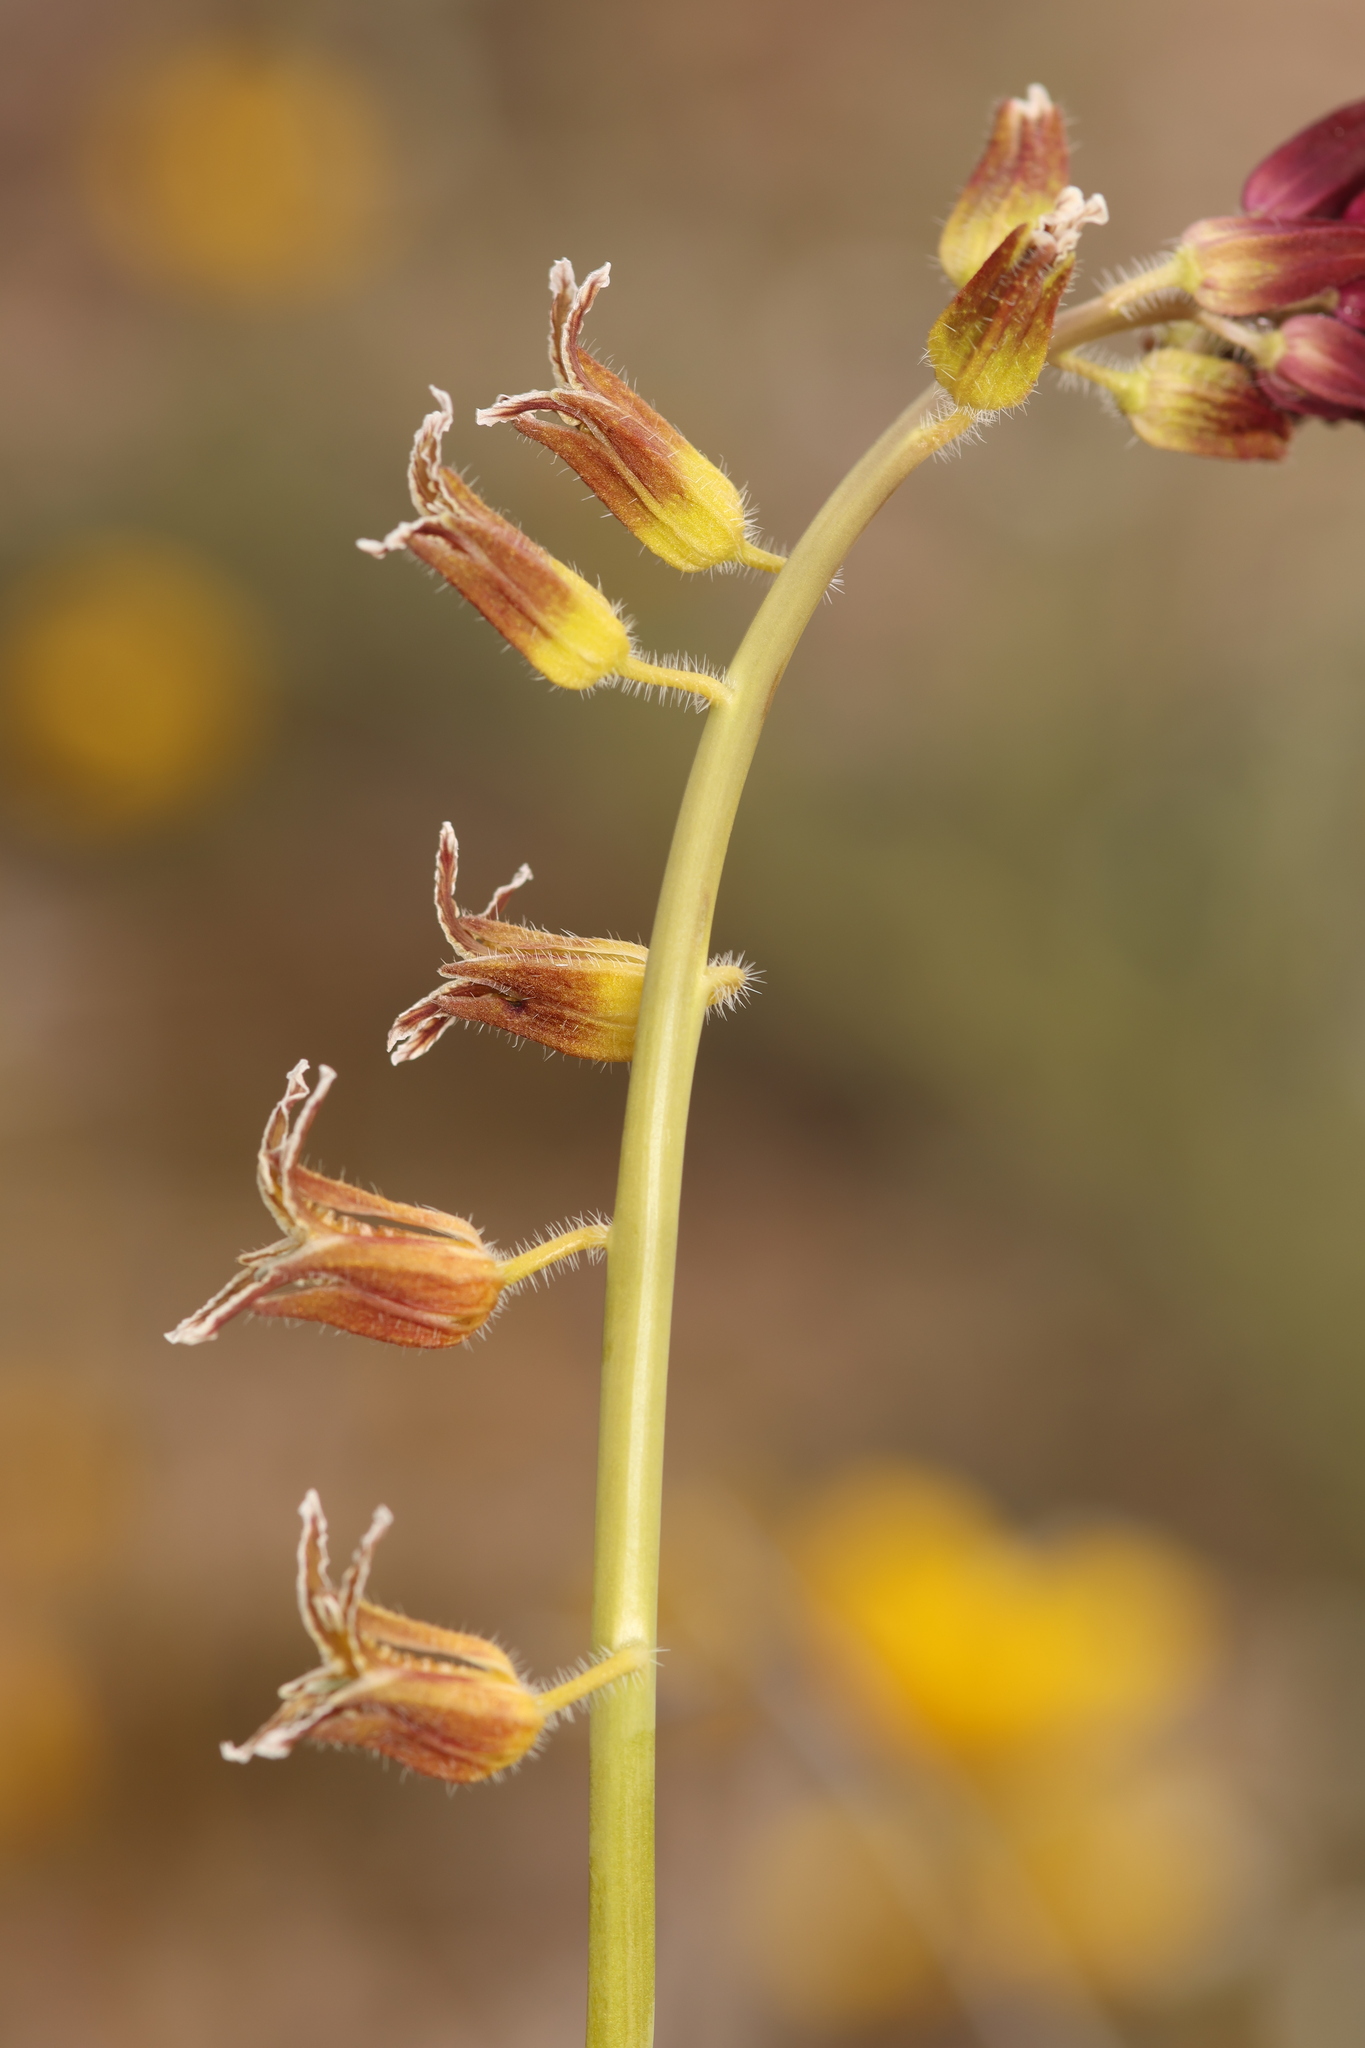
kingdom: Plantae
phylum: Tracheophyta
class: Magnoliopsida
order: Brassicales
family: Brassicaceae
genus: Streptanthus
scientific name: Streptanthus coulteri
